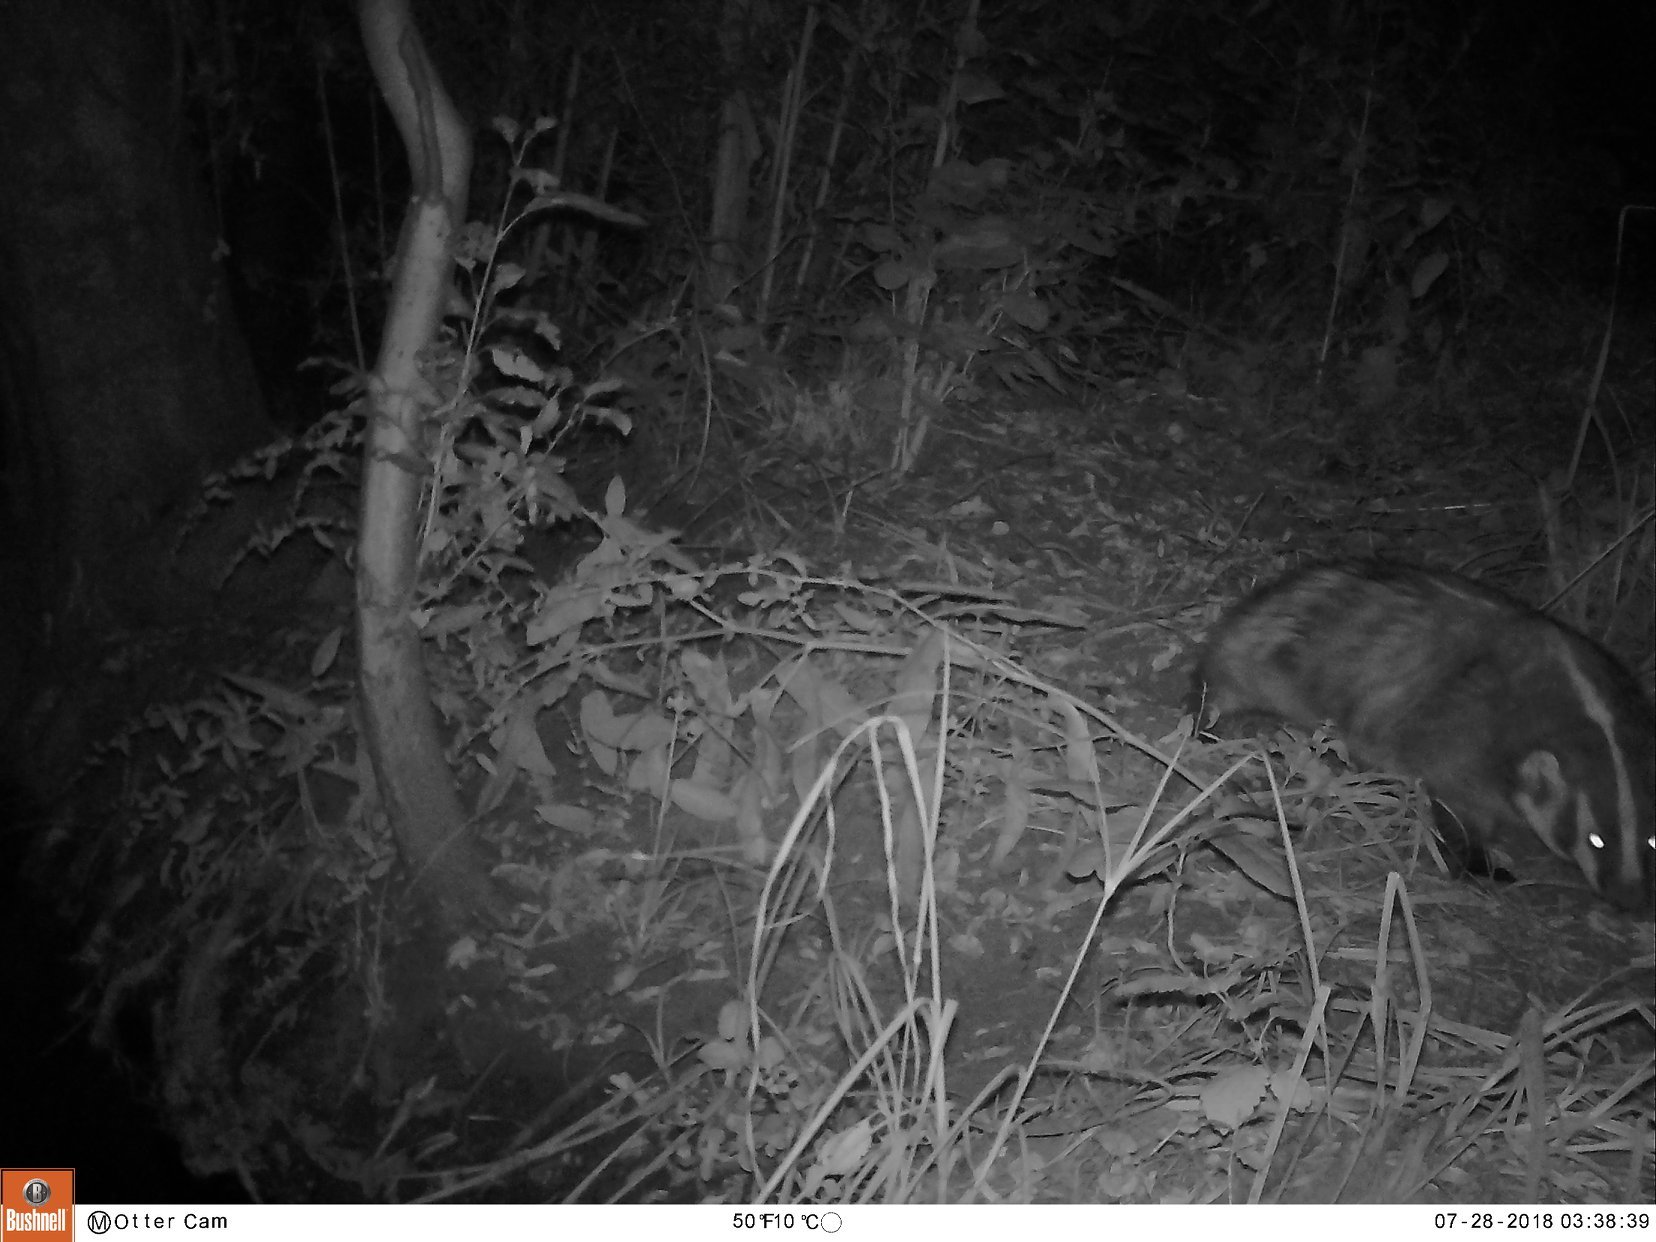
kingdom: Animalia
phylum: Chordata
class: Mammalia
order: Carnivora
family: Mustelidae
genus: Taxidea
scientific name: Taxidea taxus
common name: American badger
